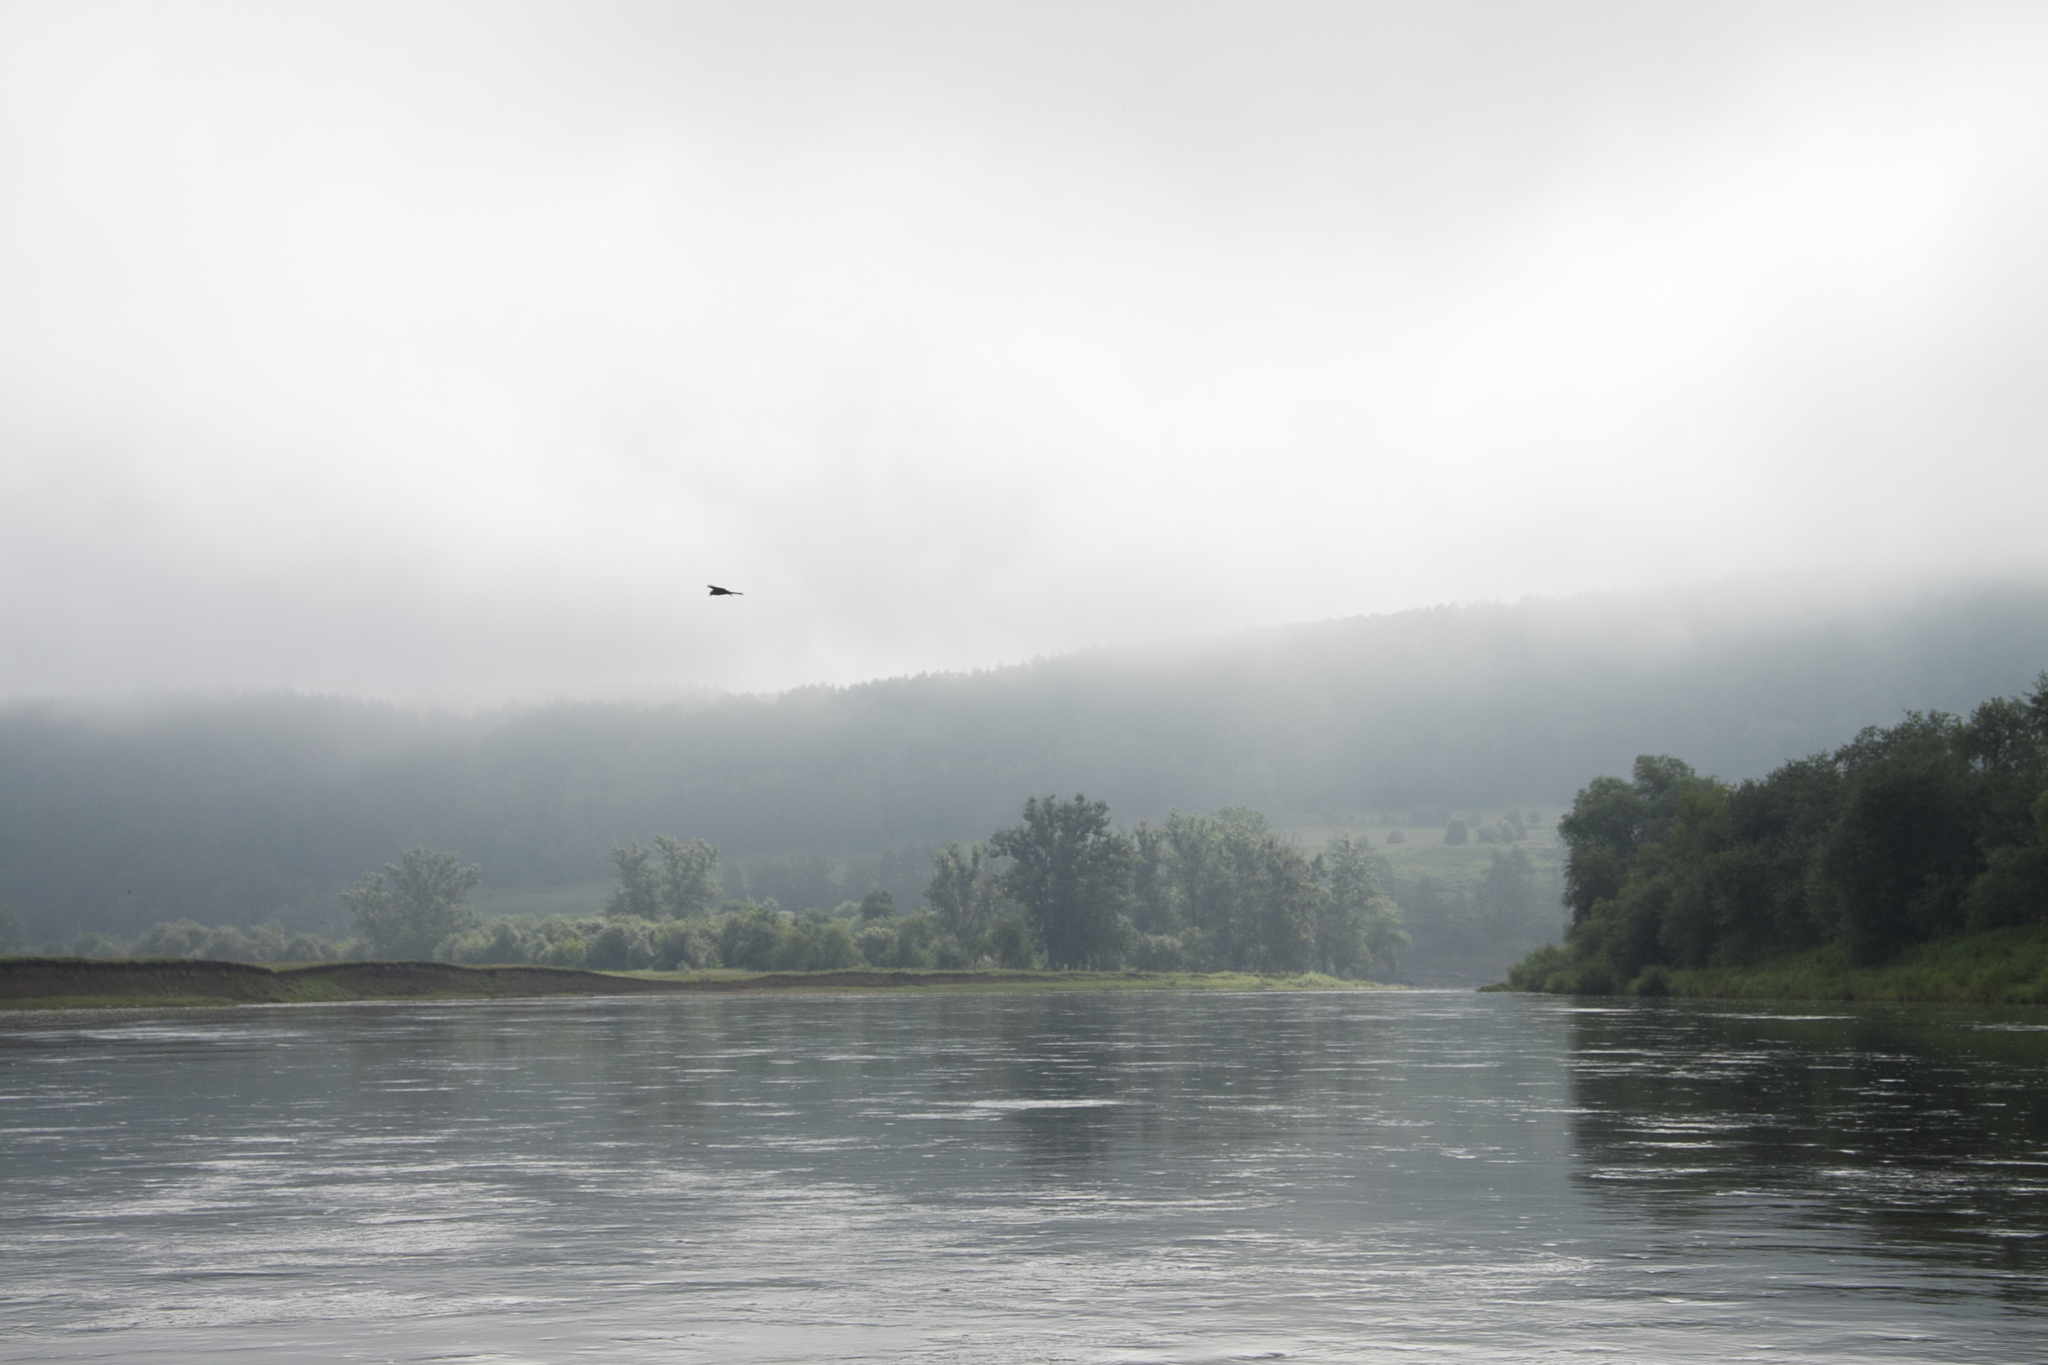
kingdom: Animalia
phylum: Chordata
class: Aves
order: Accipitriformes
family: Accipitridae
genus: Milvus
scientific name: Milvus migrans
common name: Black kite
